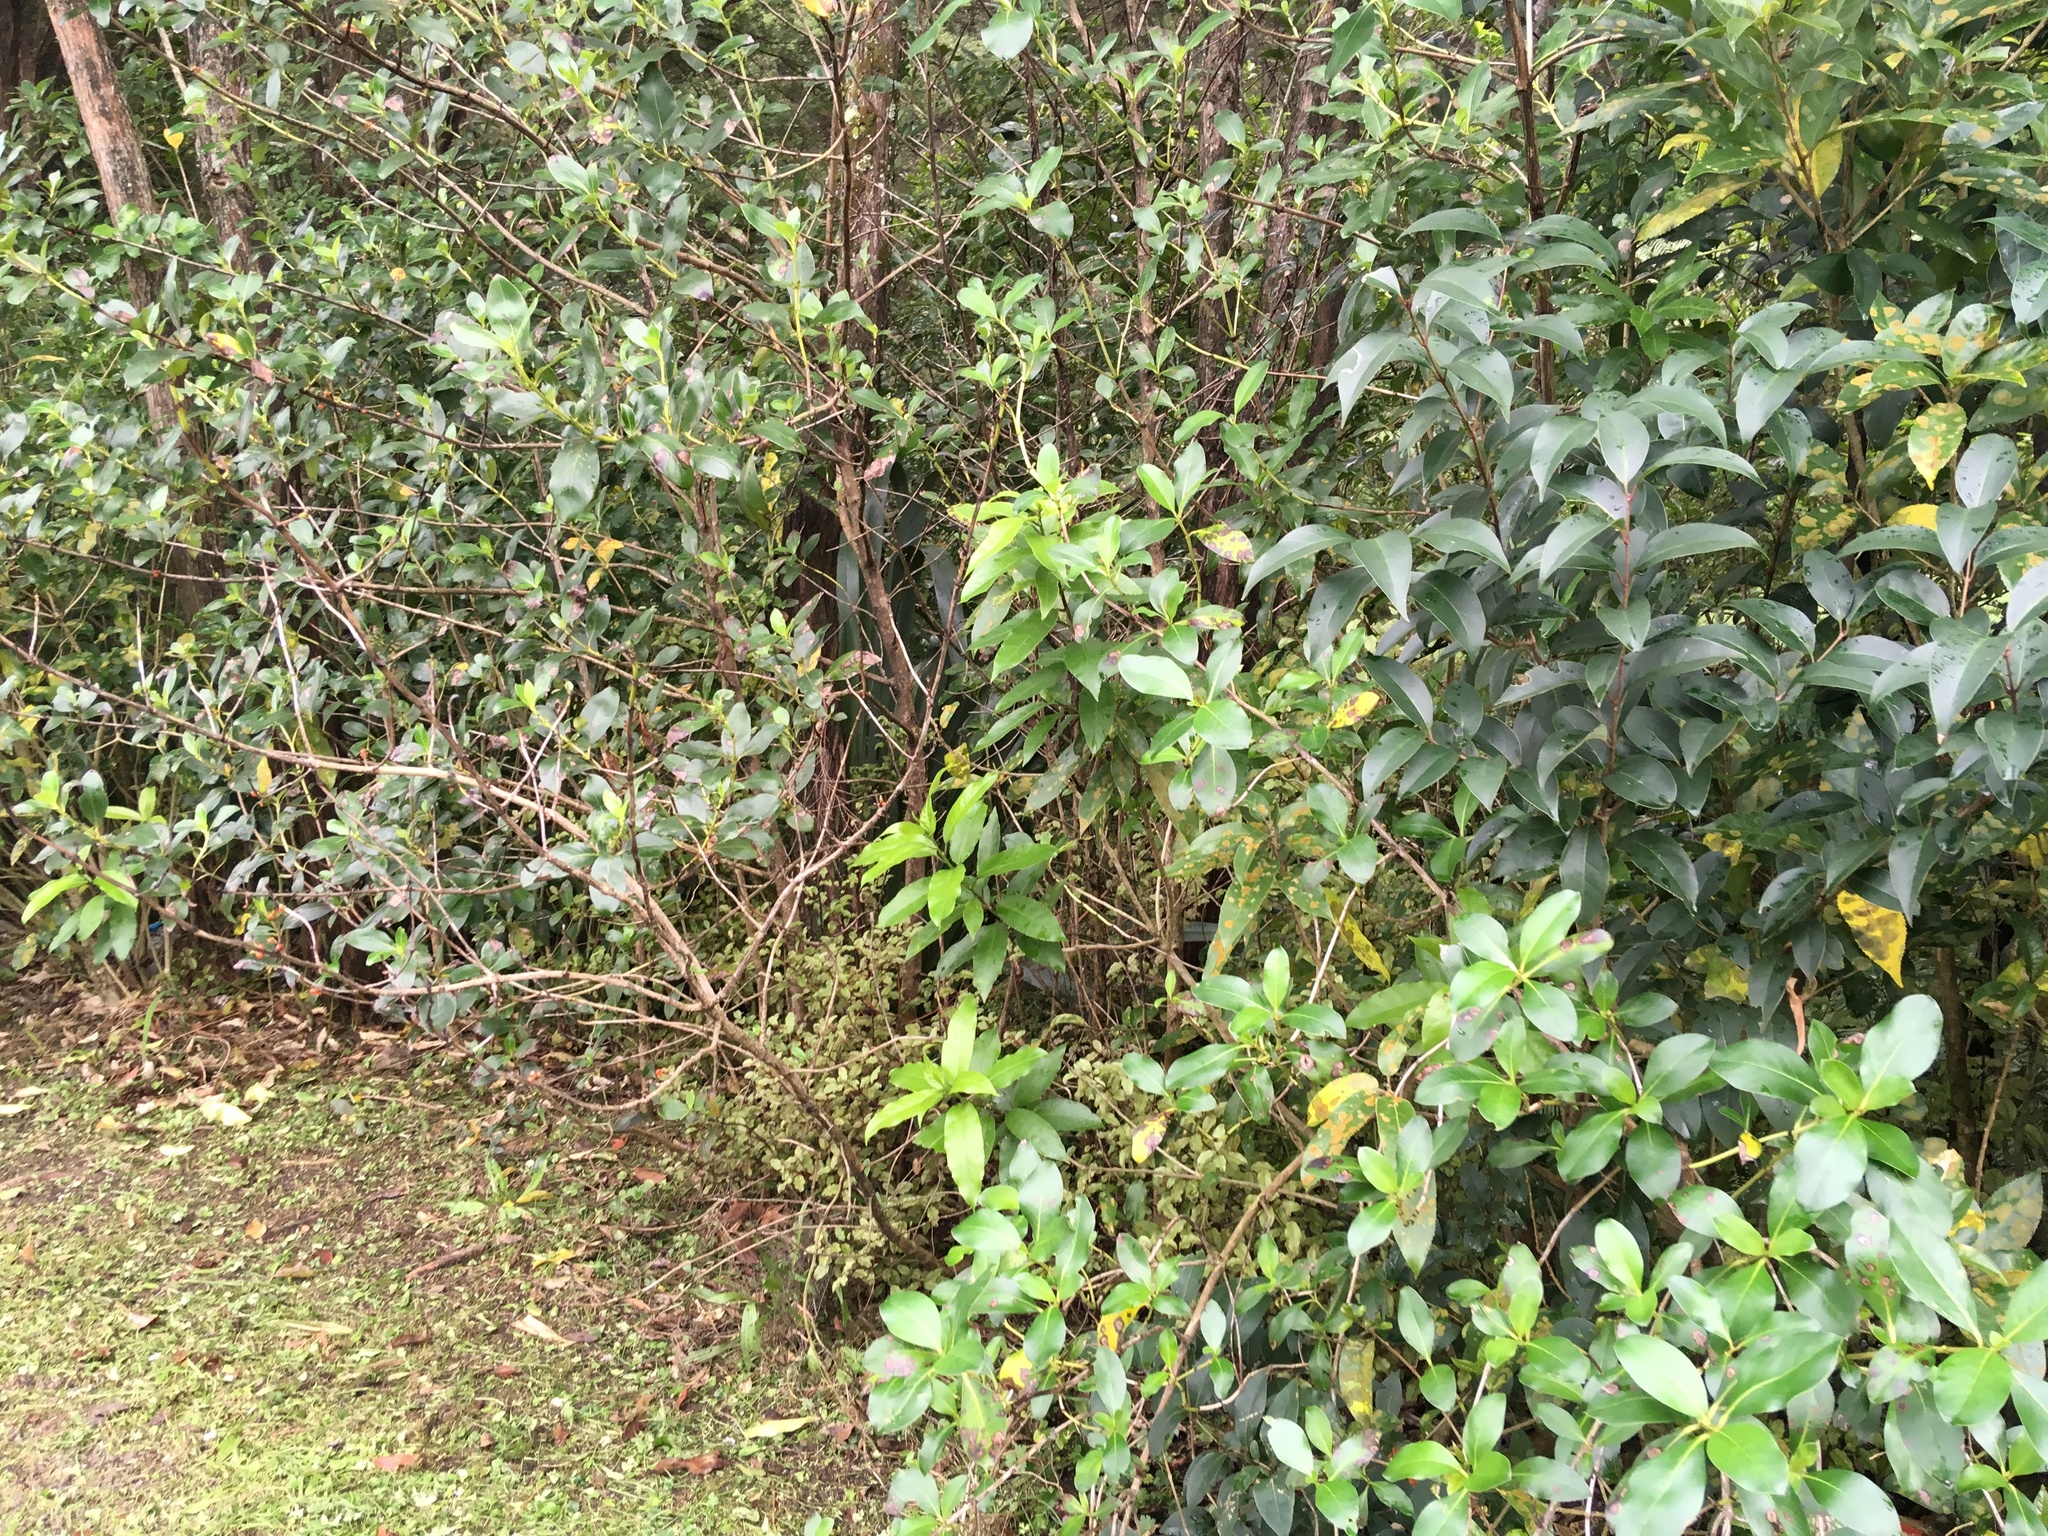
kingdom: Plantae
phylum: Tracheophyta
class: Magnoliopsida
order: Lamiales
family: Oleaceae
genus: Ligustrum
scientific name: Ligustrum lucidum
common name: Glossy privet
